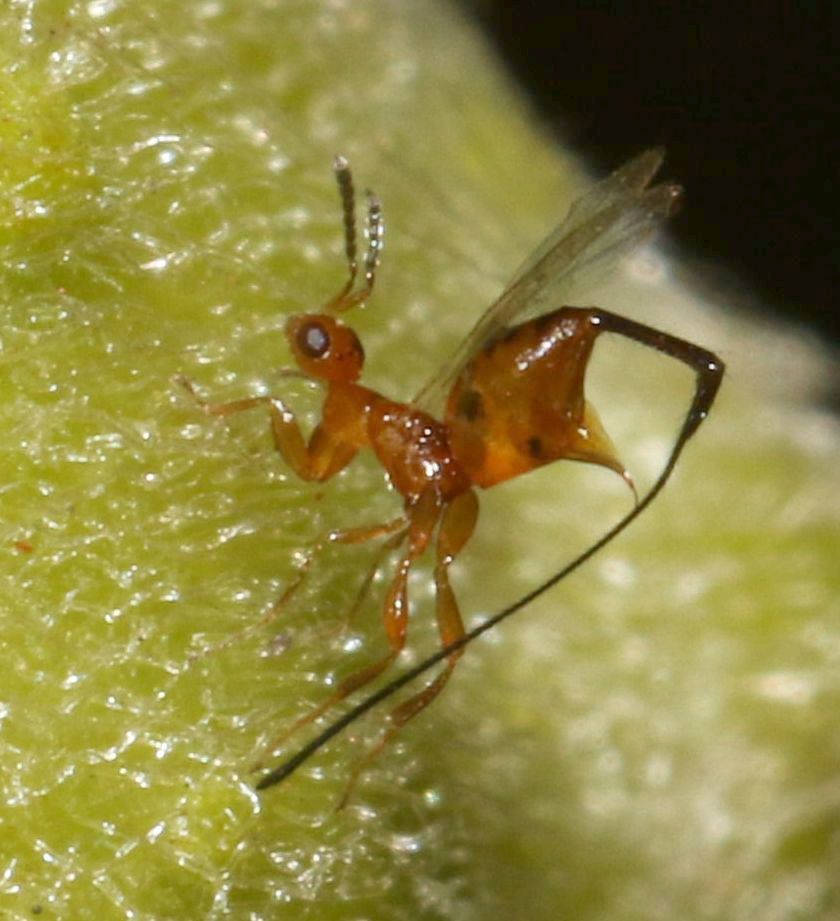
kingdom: Animalia
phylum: Arthropoda
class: Insecta
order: Hymenoptera
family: Agaonidae
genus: Philotrypesis
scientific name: Philotrypesis parca
